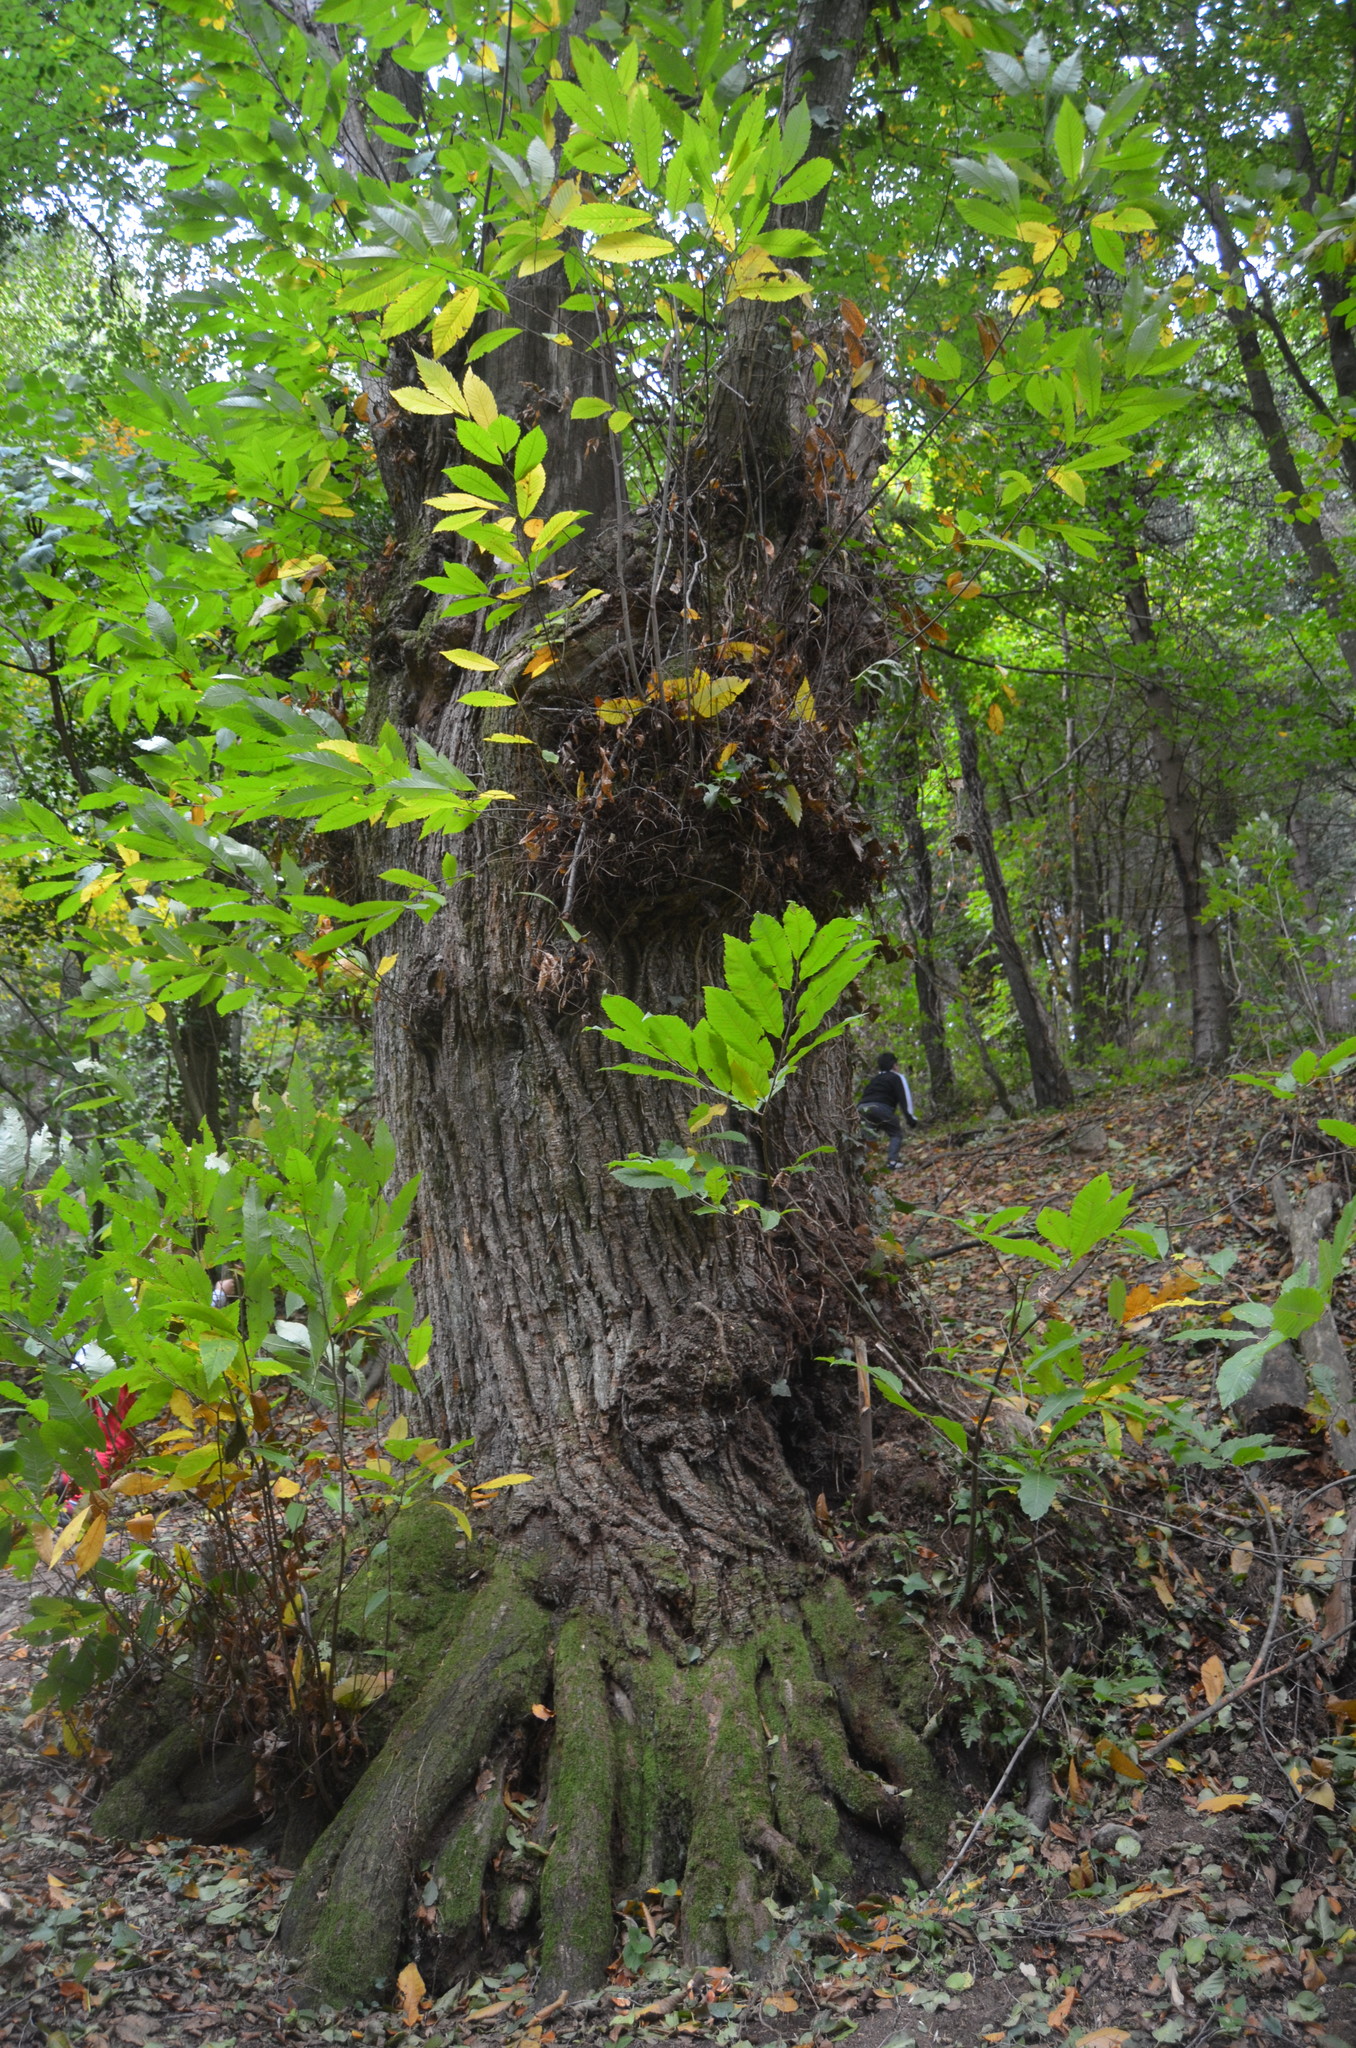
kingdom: Plantae
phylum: Tracheophyta
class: Magnoliopsida
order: Fagales
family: Fagaceae
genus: Castanea
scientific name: Castanea sativa
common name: Sweet chestnut
